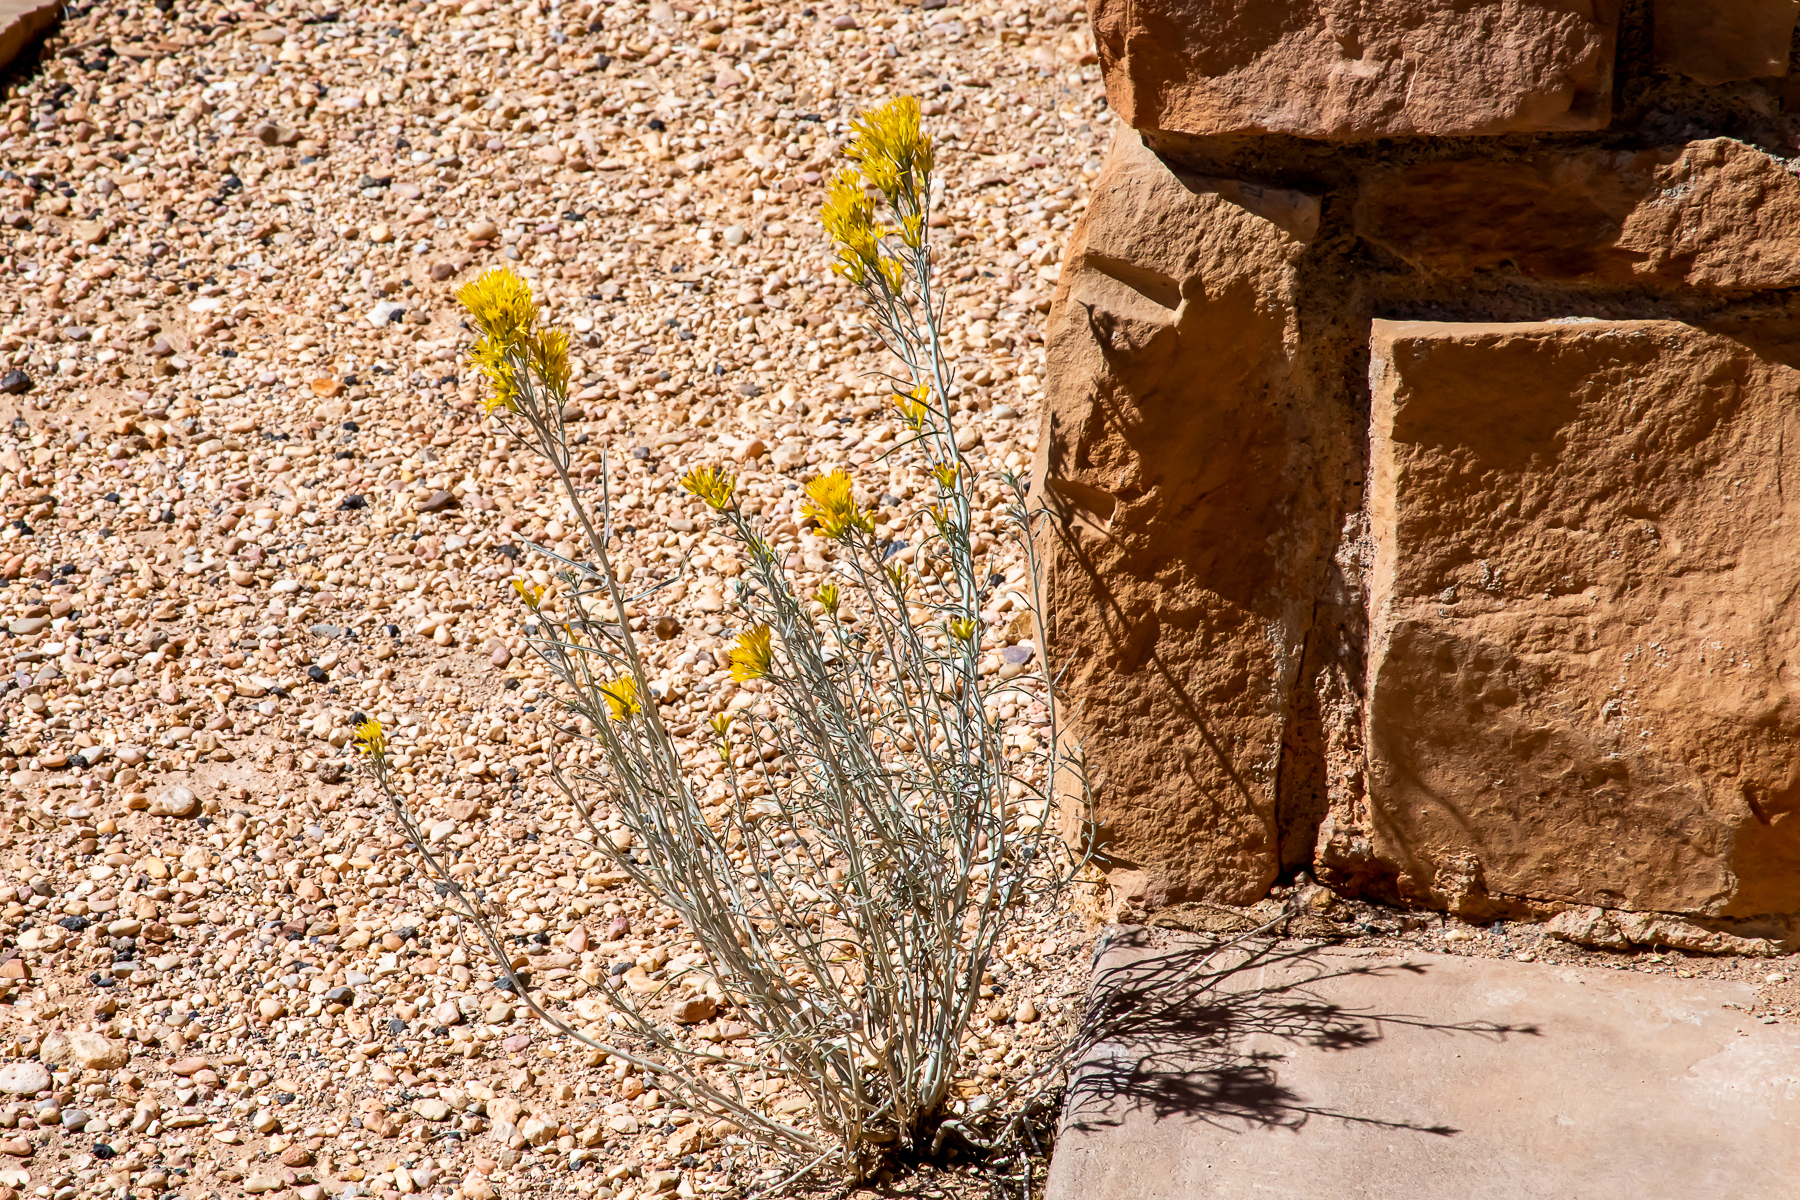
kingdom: Plantae
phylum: Tracheophyta
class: Magnoliopsida
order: Asterales
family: Asteraceae
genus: Ericameria
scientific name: Ericameria nauseosa
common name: Rubber rabbitbrush
